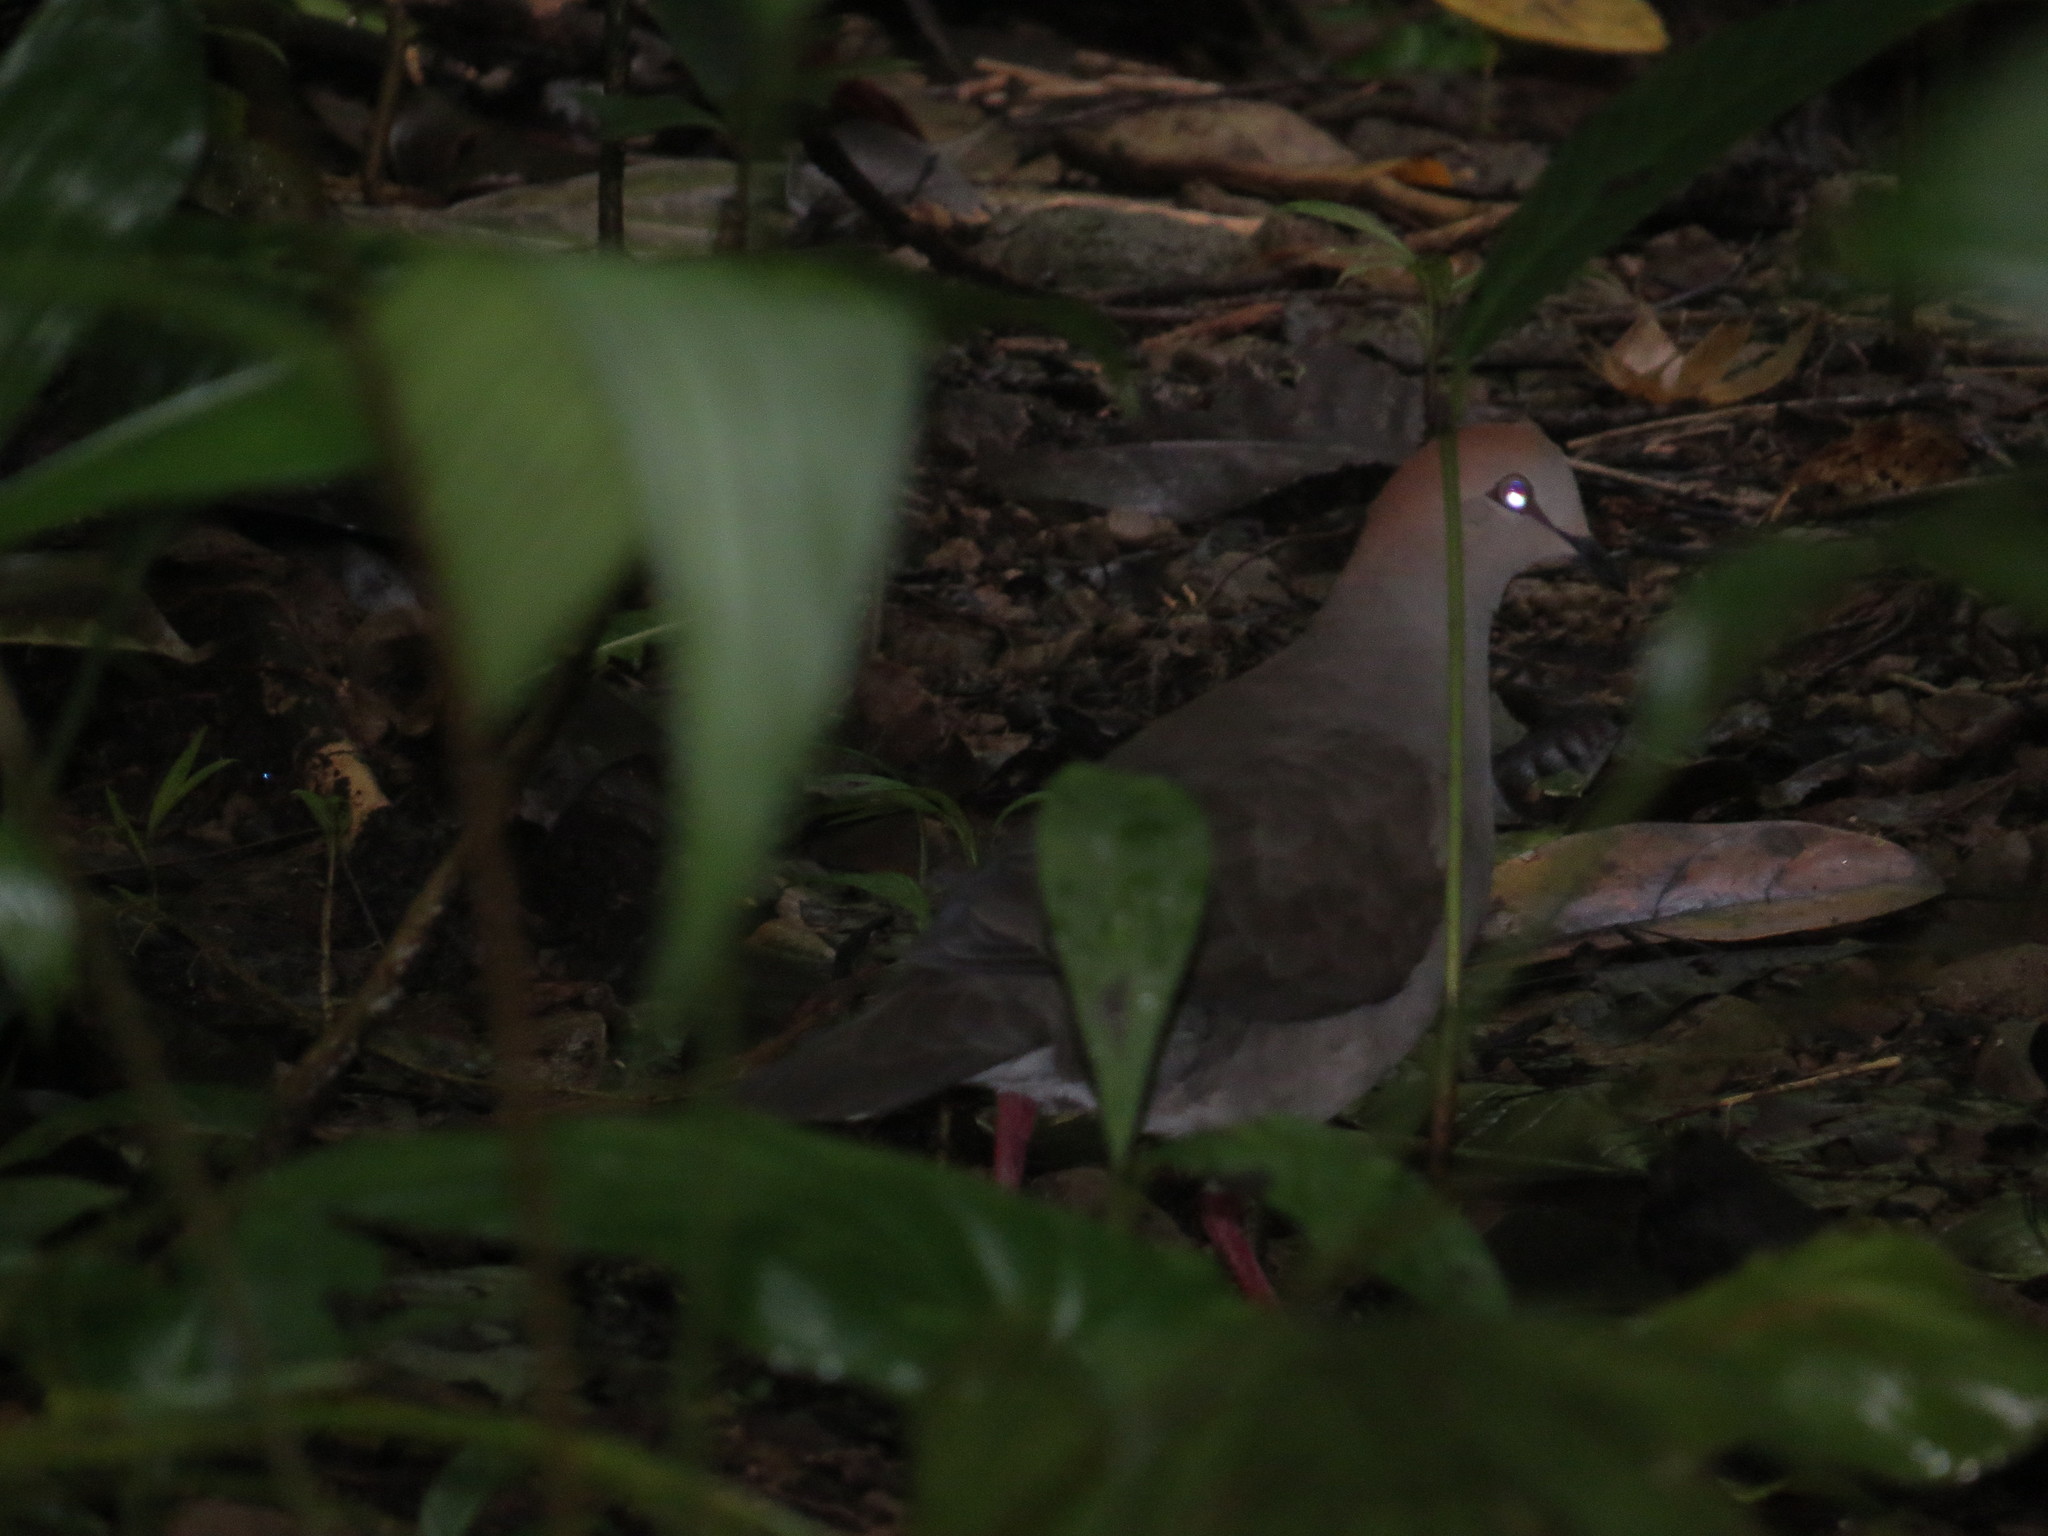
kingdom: Animalia
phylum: Chordata
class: Aves
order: Columbiformes
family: Columbidae
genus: Leptotila
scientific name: Leptotila cassinii
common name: Grey-chested dove
